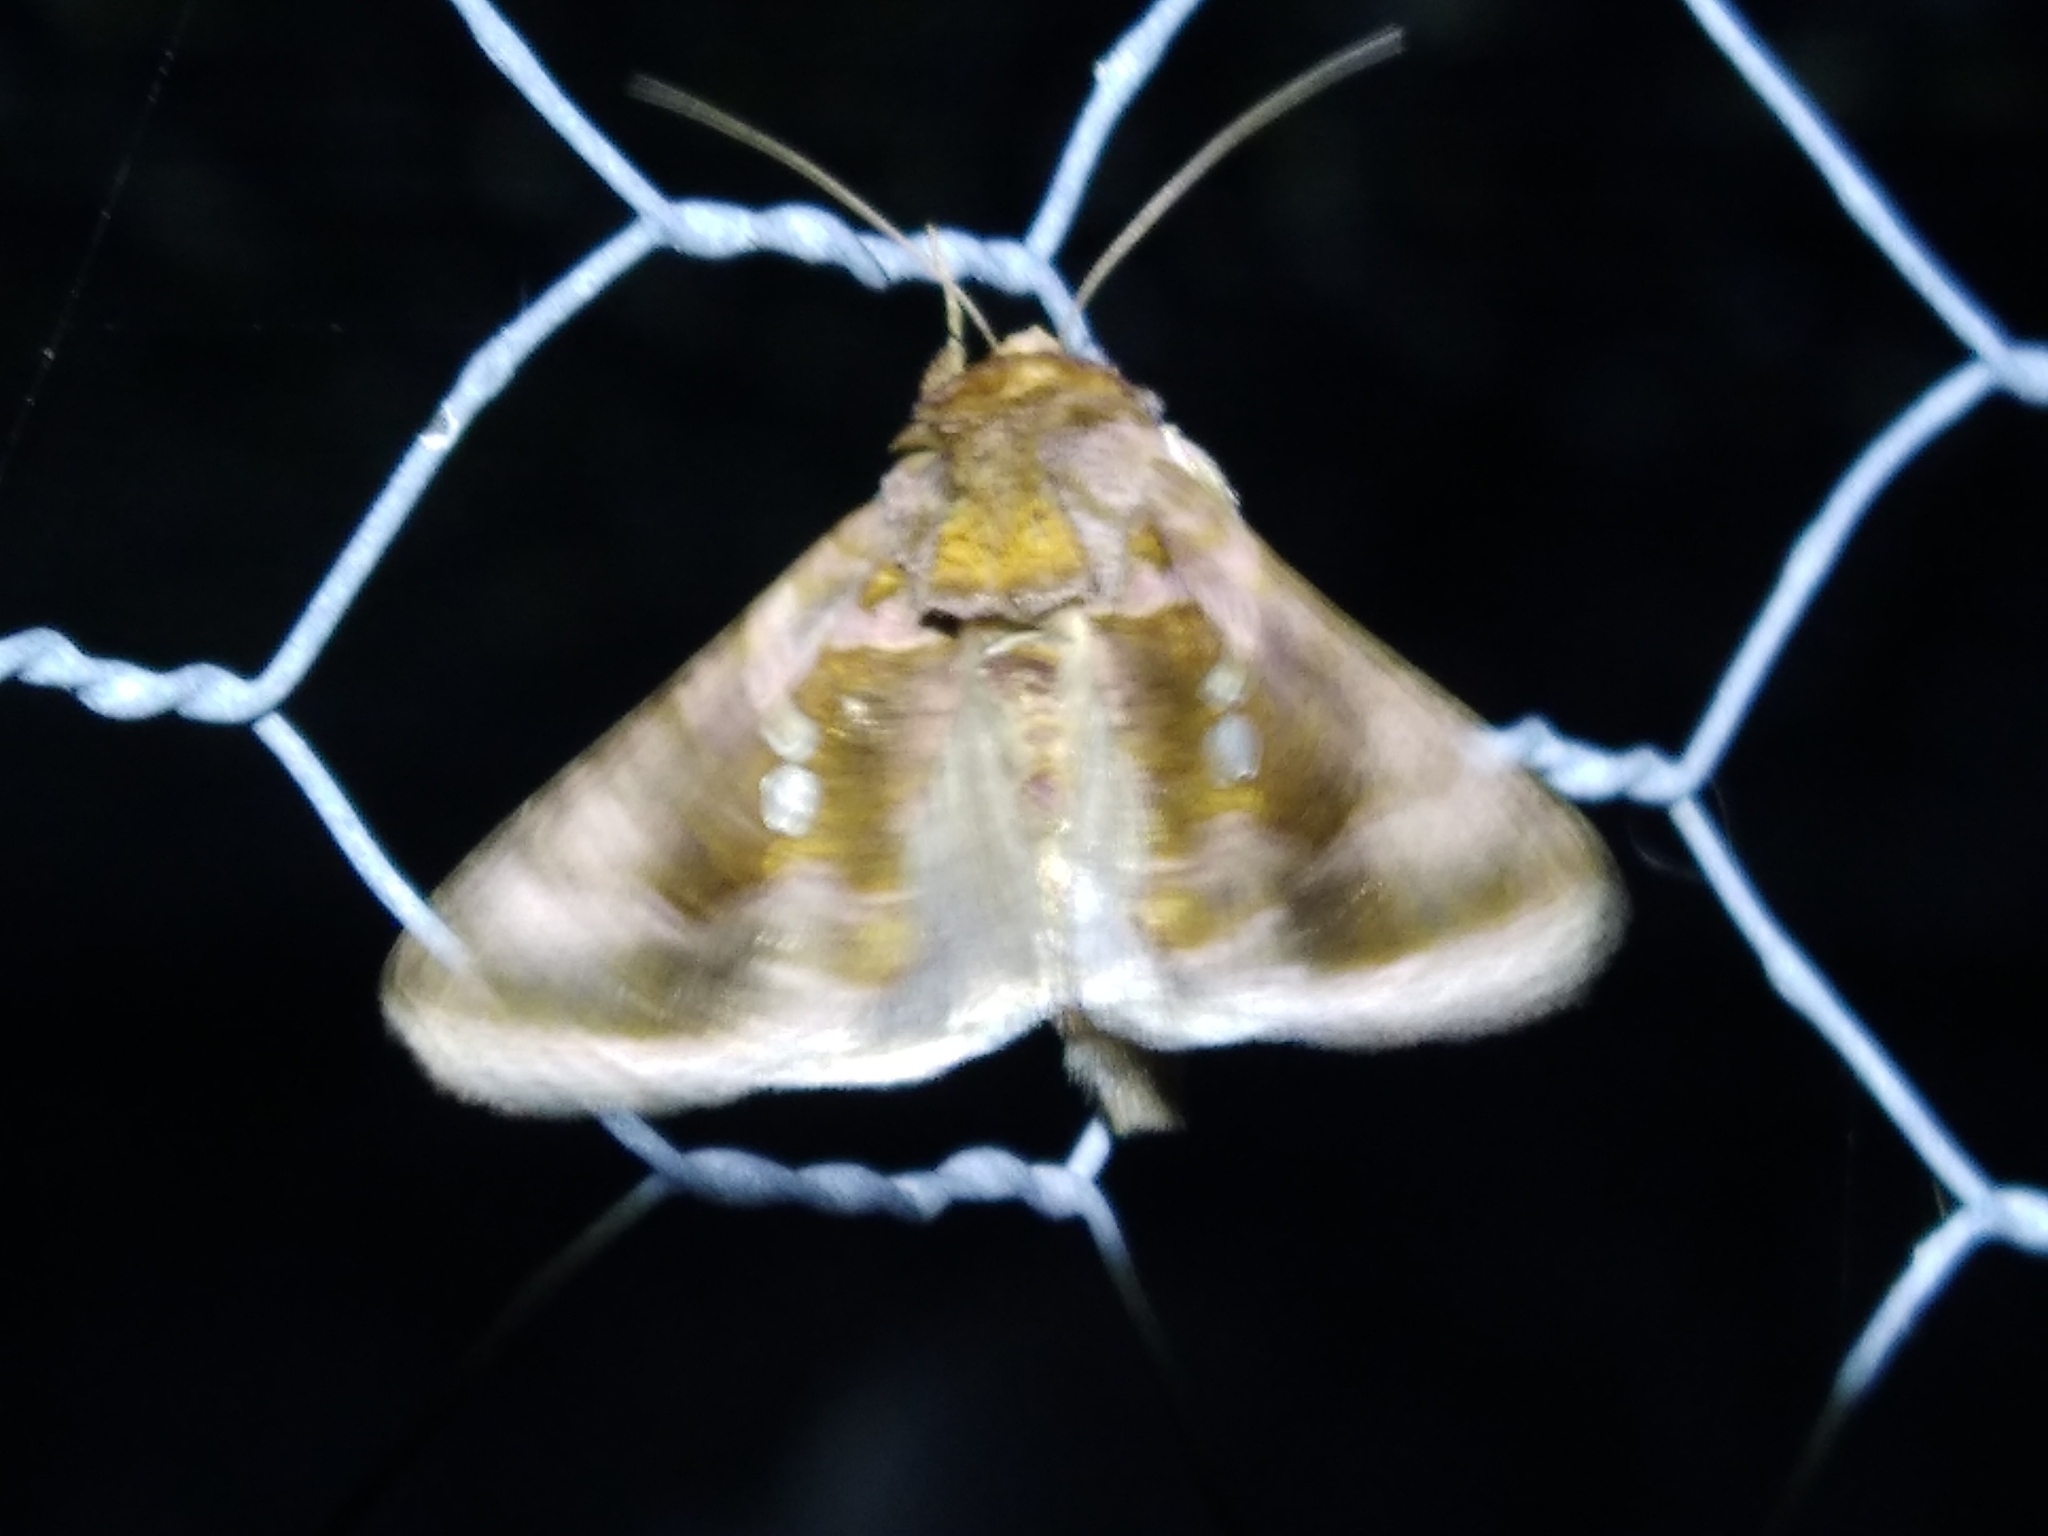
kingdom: Animalia
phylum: Arthropoda
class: Insecta
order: Lepidoptera
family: Noctuidae
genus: Chrysodeixis
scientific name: Chrysodeixis chalcites
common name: Golden twin-spot
